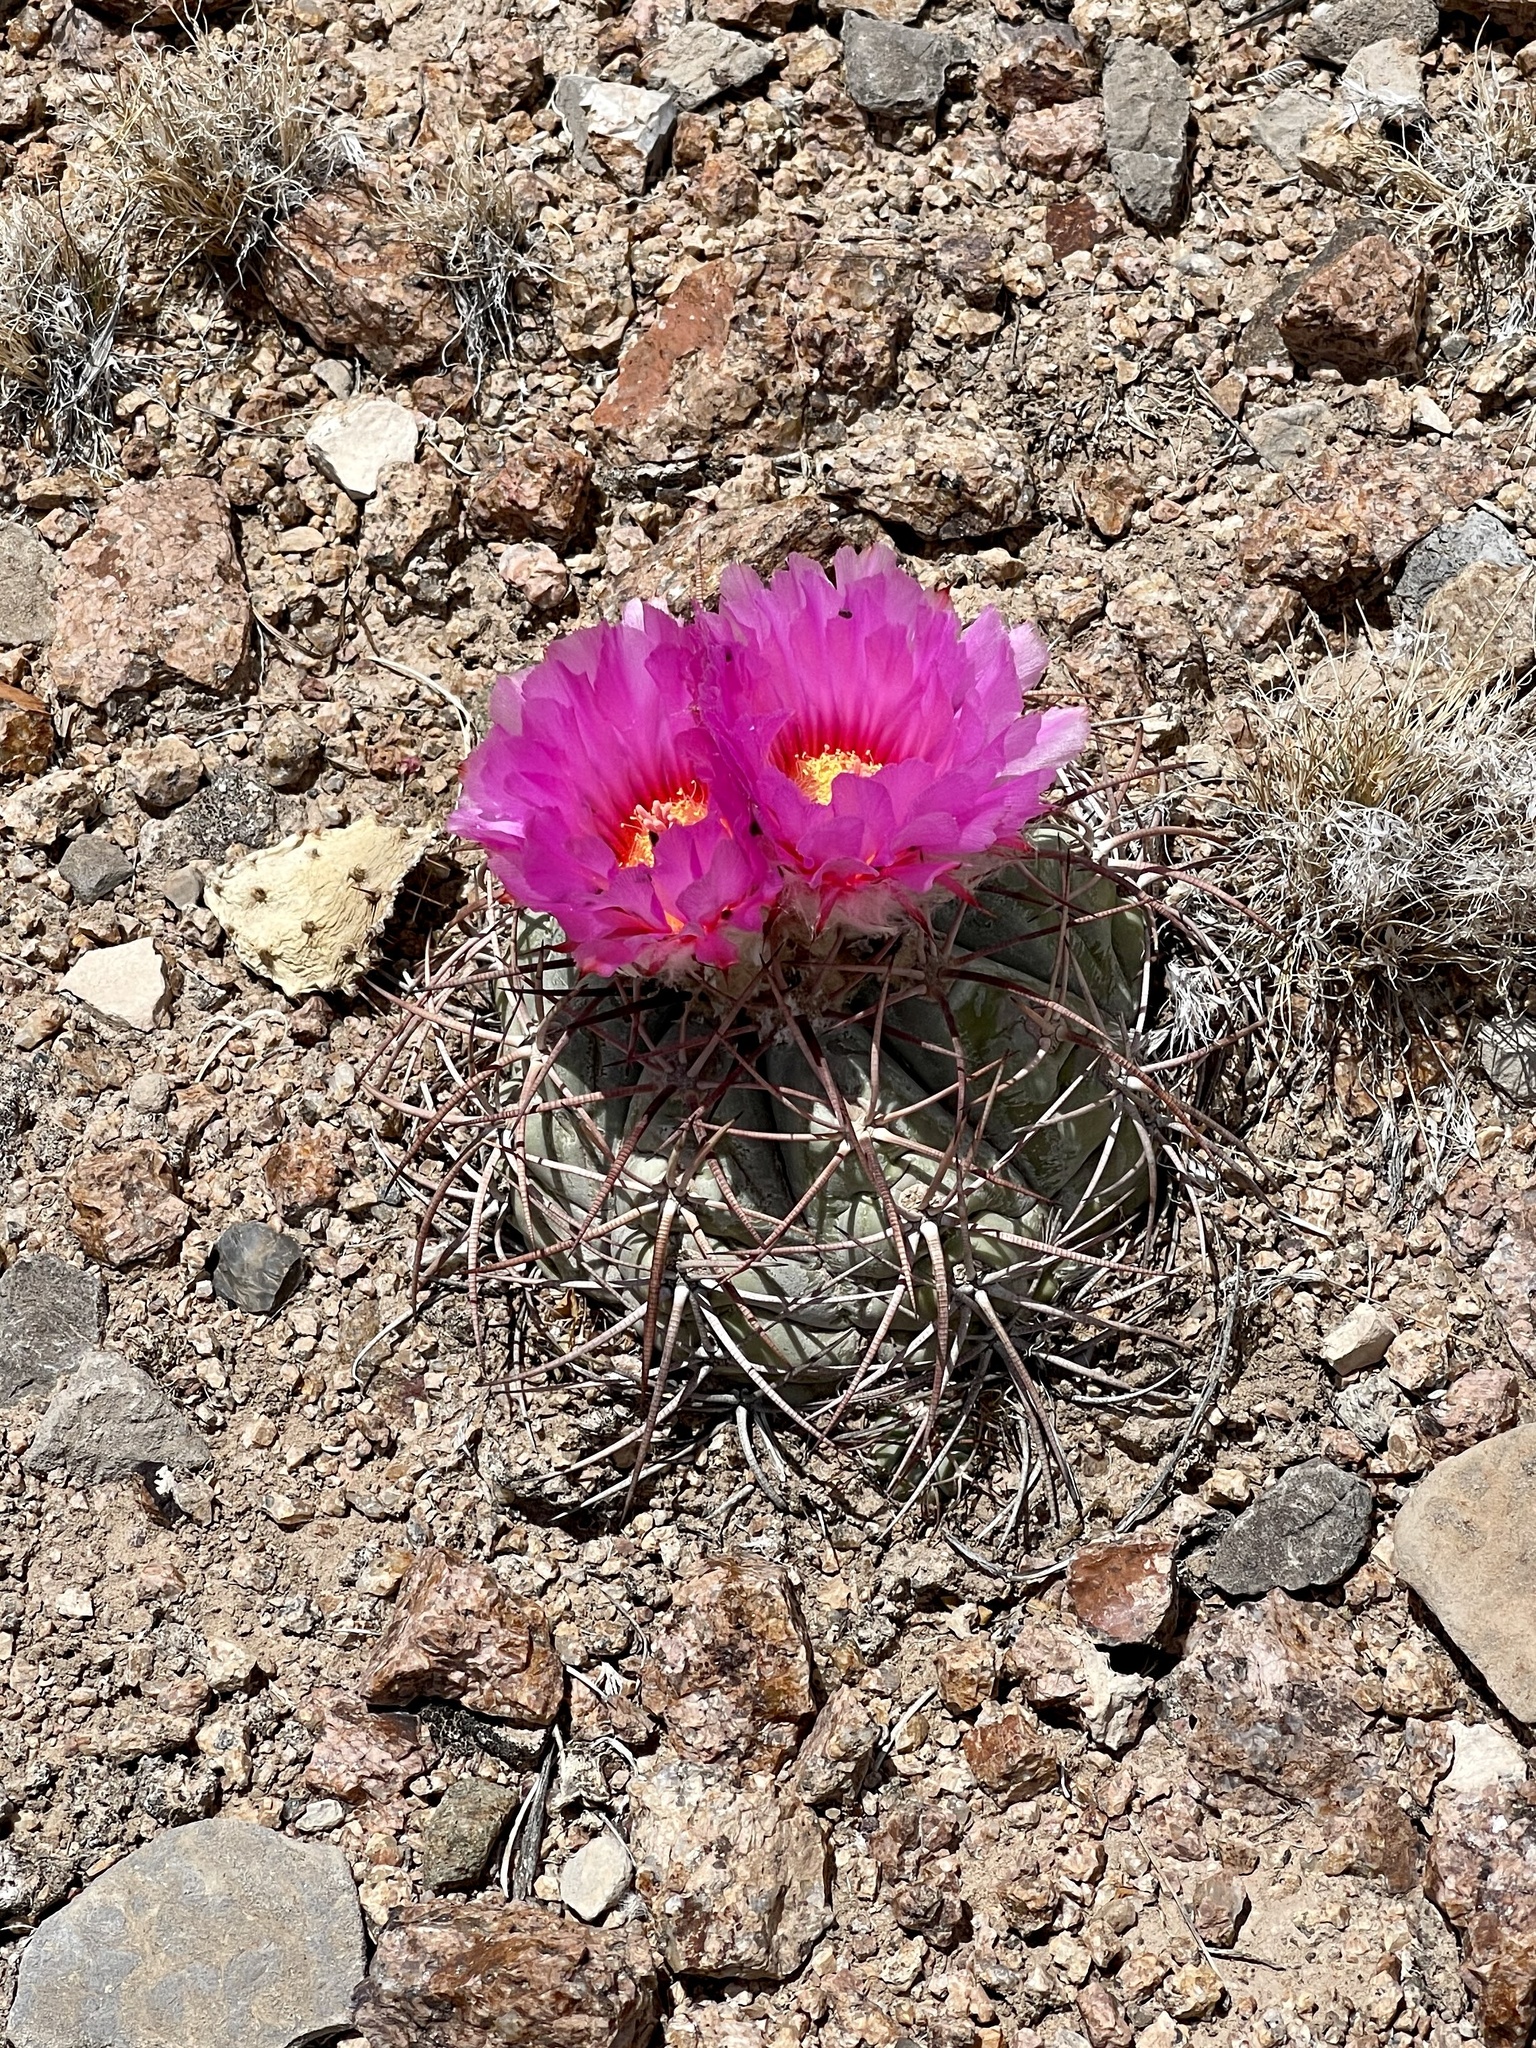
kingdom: Plantae
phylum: Tracheophyta
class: Magnoliopsida
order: Caryophyllales
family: Cactaceae
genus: Echinocactus
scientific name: Echinocactus horizonthalonius
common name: Devilshead
